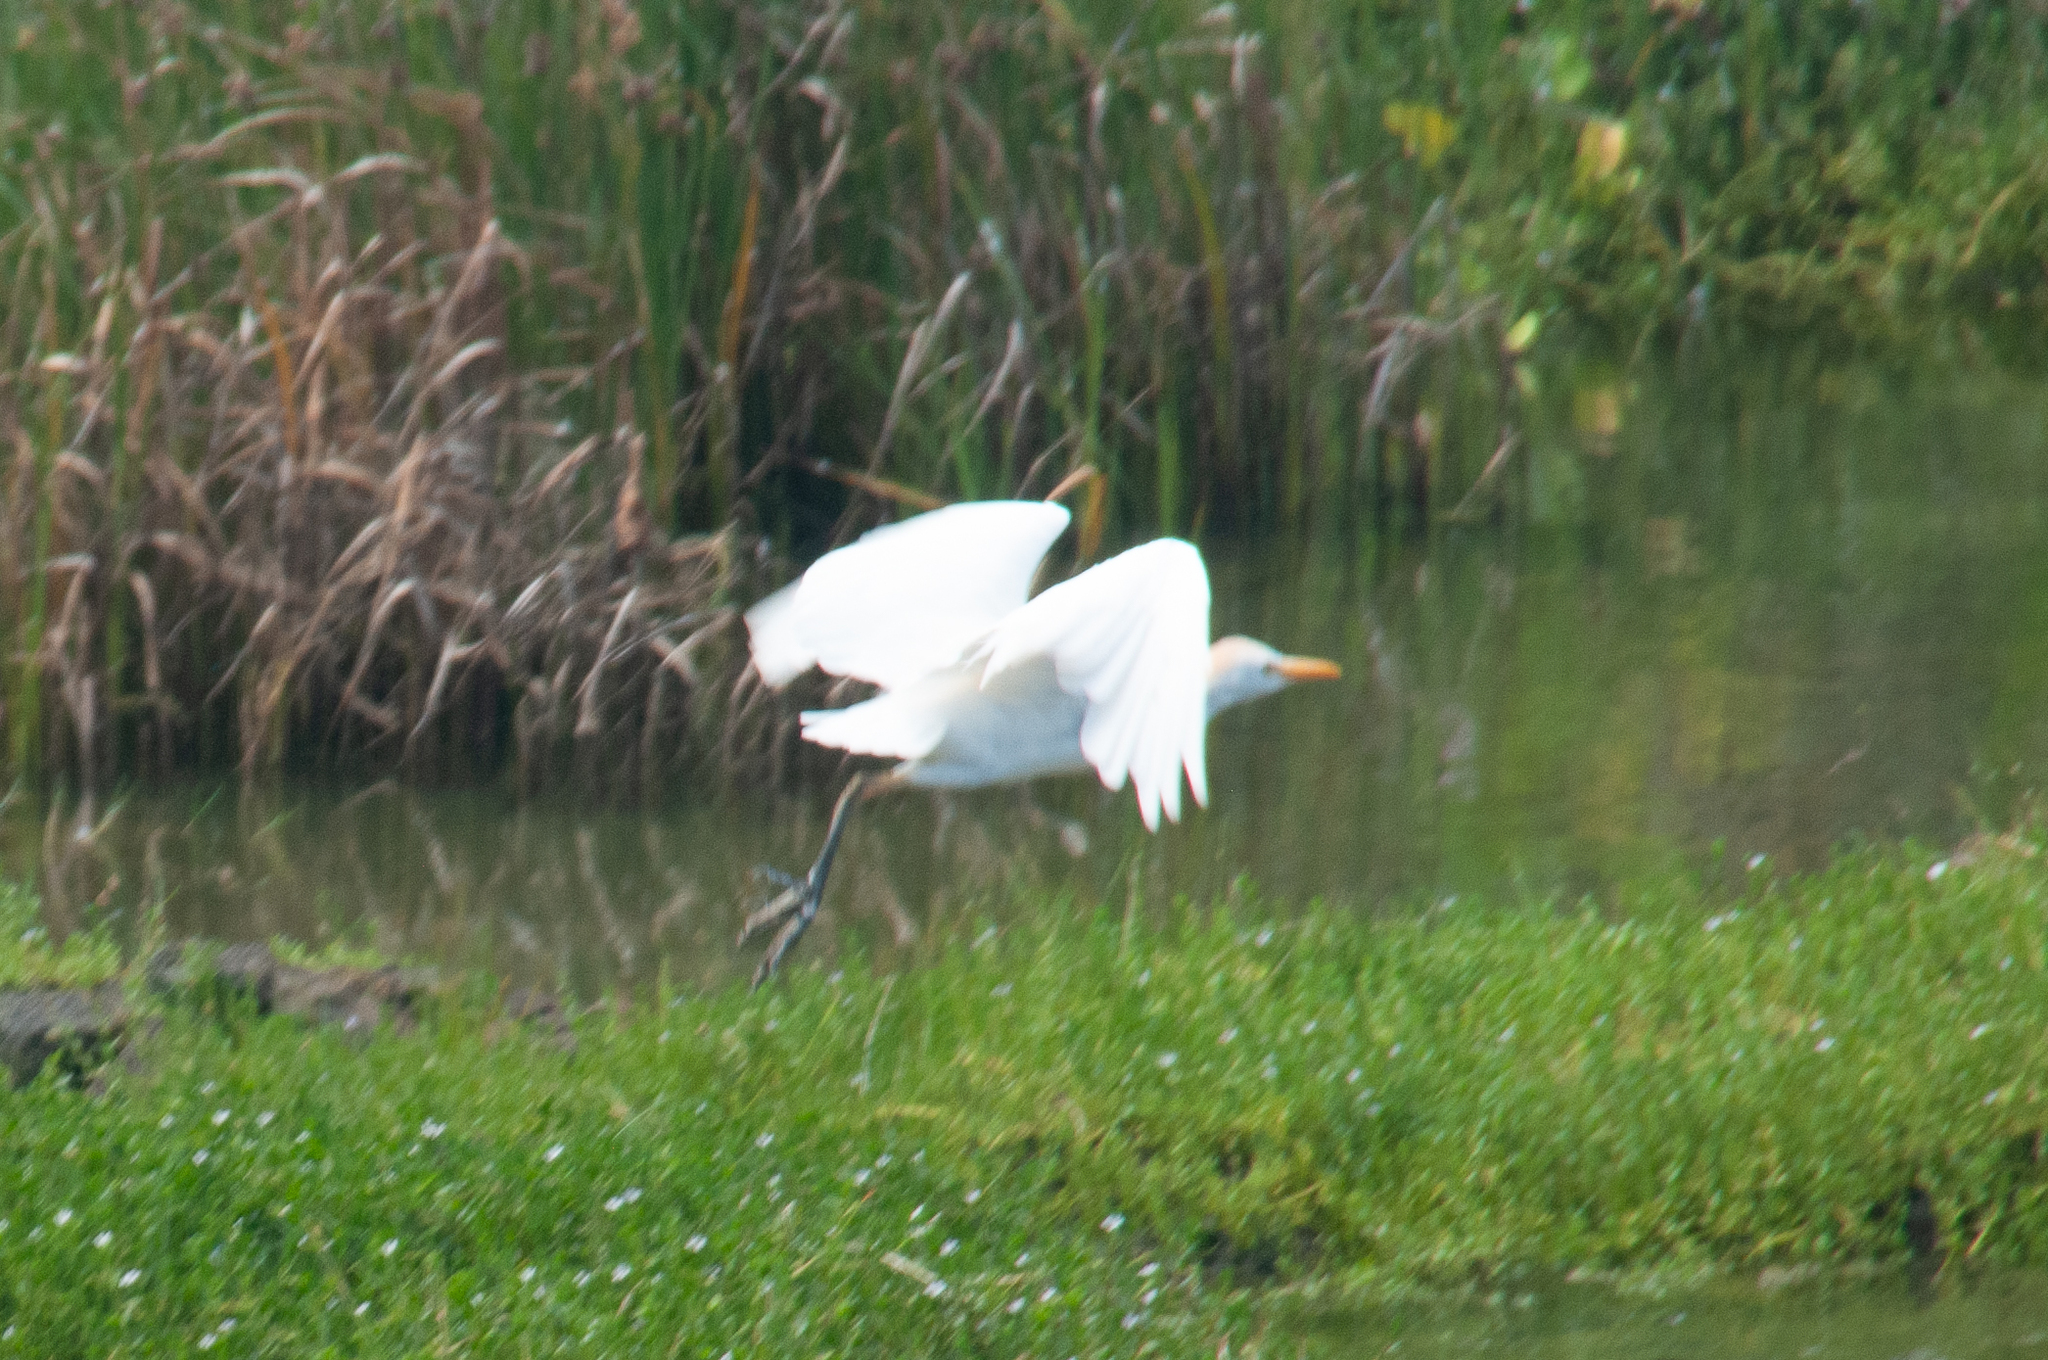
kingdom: Animalia
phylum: Chordata
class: Aves
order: Pelecaniformes
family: Ardeidae
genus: Bubulcus
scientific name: Bubulcus ibis
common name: Cattle egret
